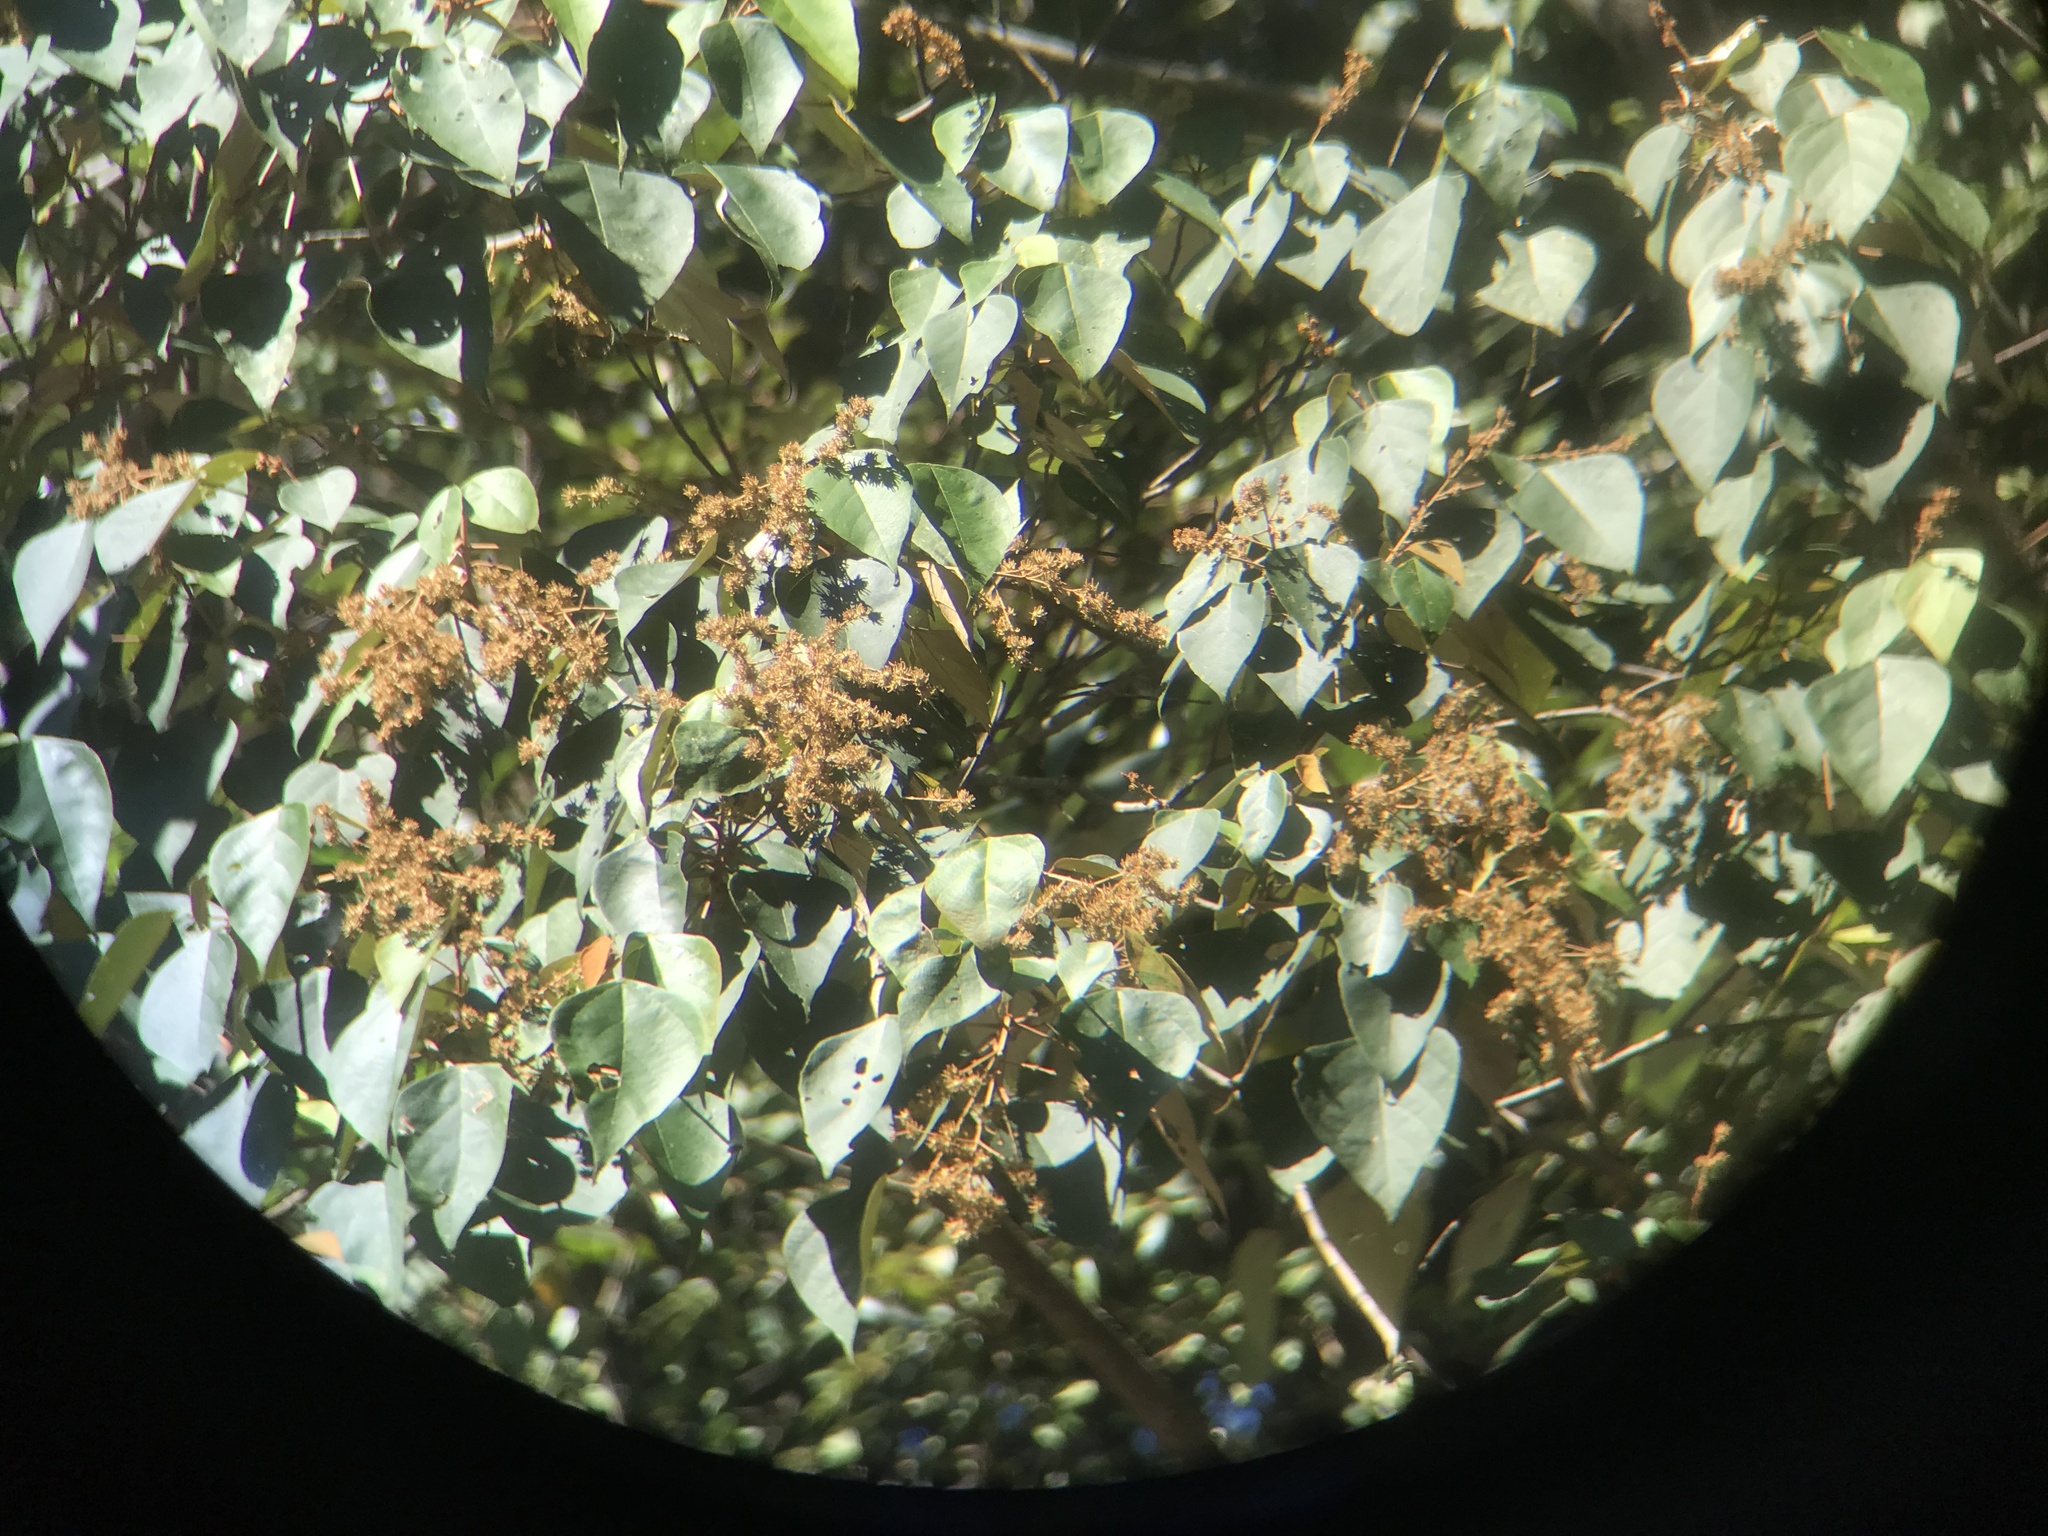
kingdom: Plantae
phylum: Tracheophyta
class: Magnoliopsida
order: Malpighiales
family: Euphorbiaceae
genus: Mallotus
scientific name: Mallotus paniculatus
